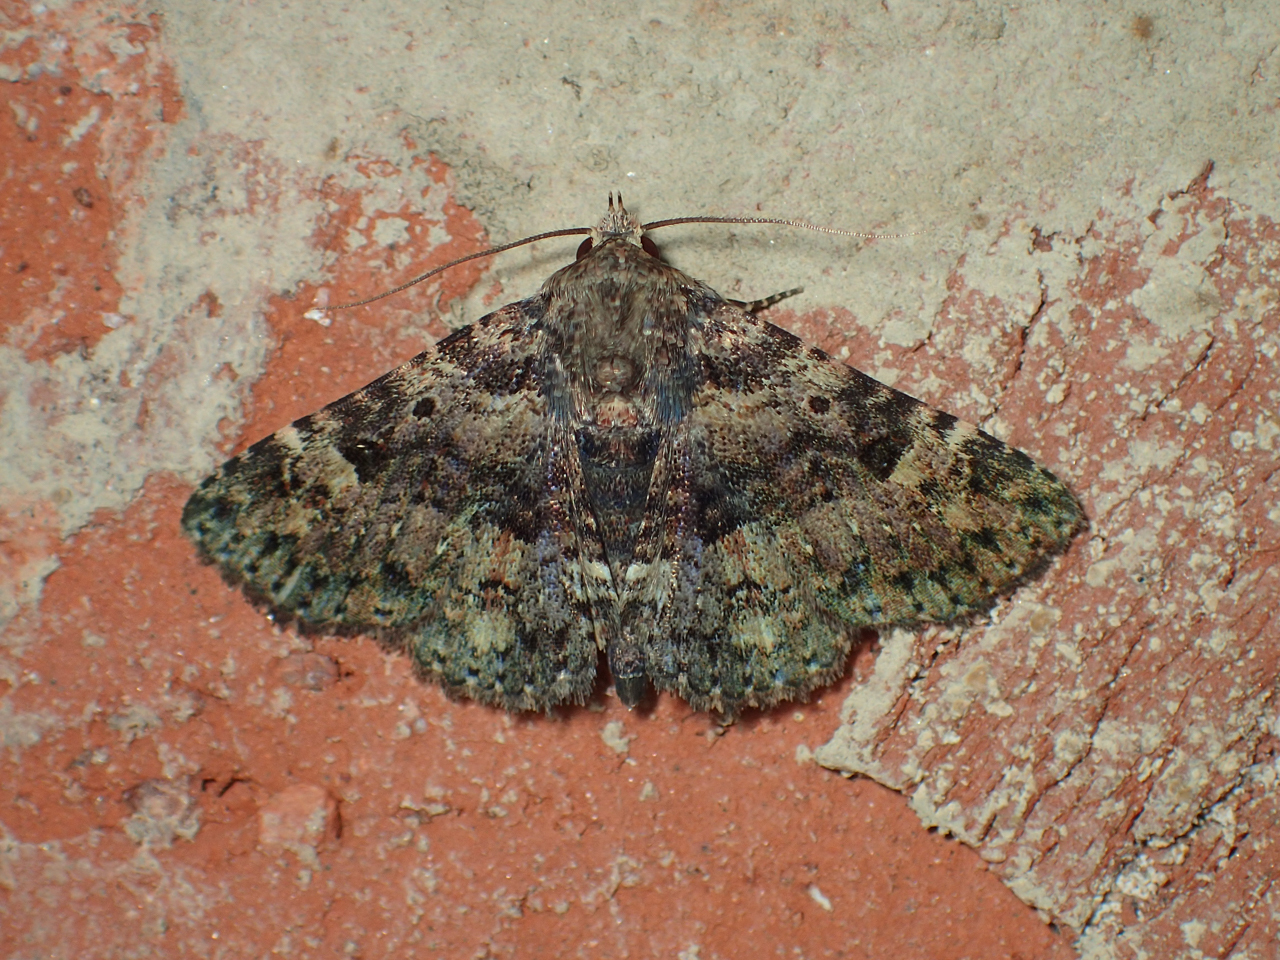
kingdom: Animalia
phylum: Arthropoda
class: Insecta
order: Lepidoptera
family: Erebidae
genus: Metalectra
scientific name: Metalectra discalis
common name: Common fungus moth
